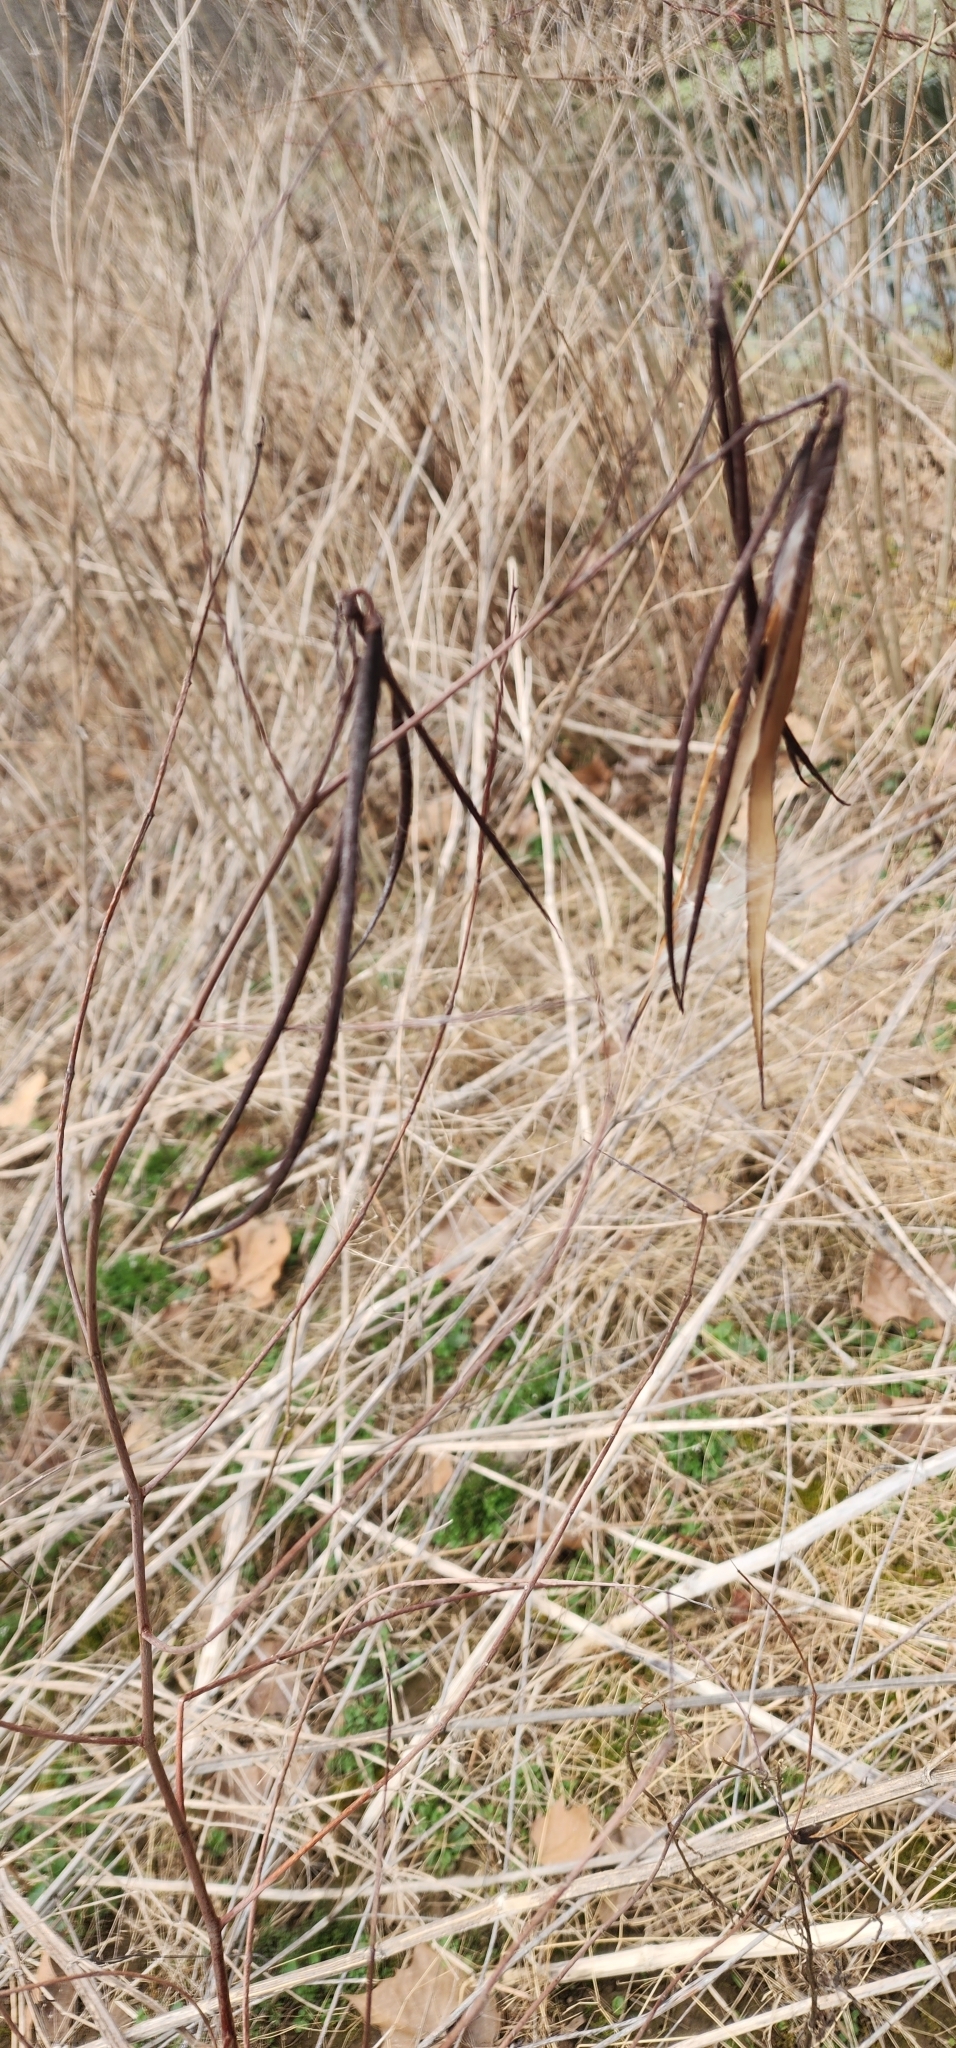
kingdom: Plantae
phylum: Tracheophyta
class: Magnoliopsida
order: Gentianales
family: Apocynaceae
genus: Apocynum
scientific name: Apocynum cannabinum
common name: Hemp dogbane
